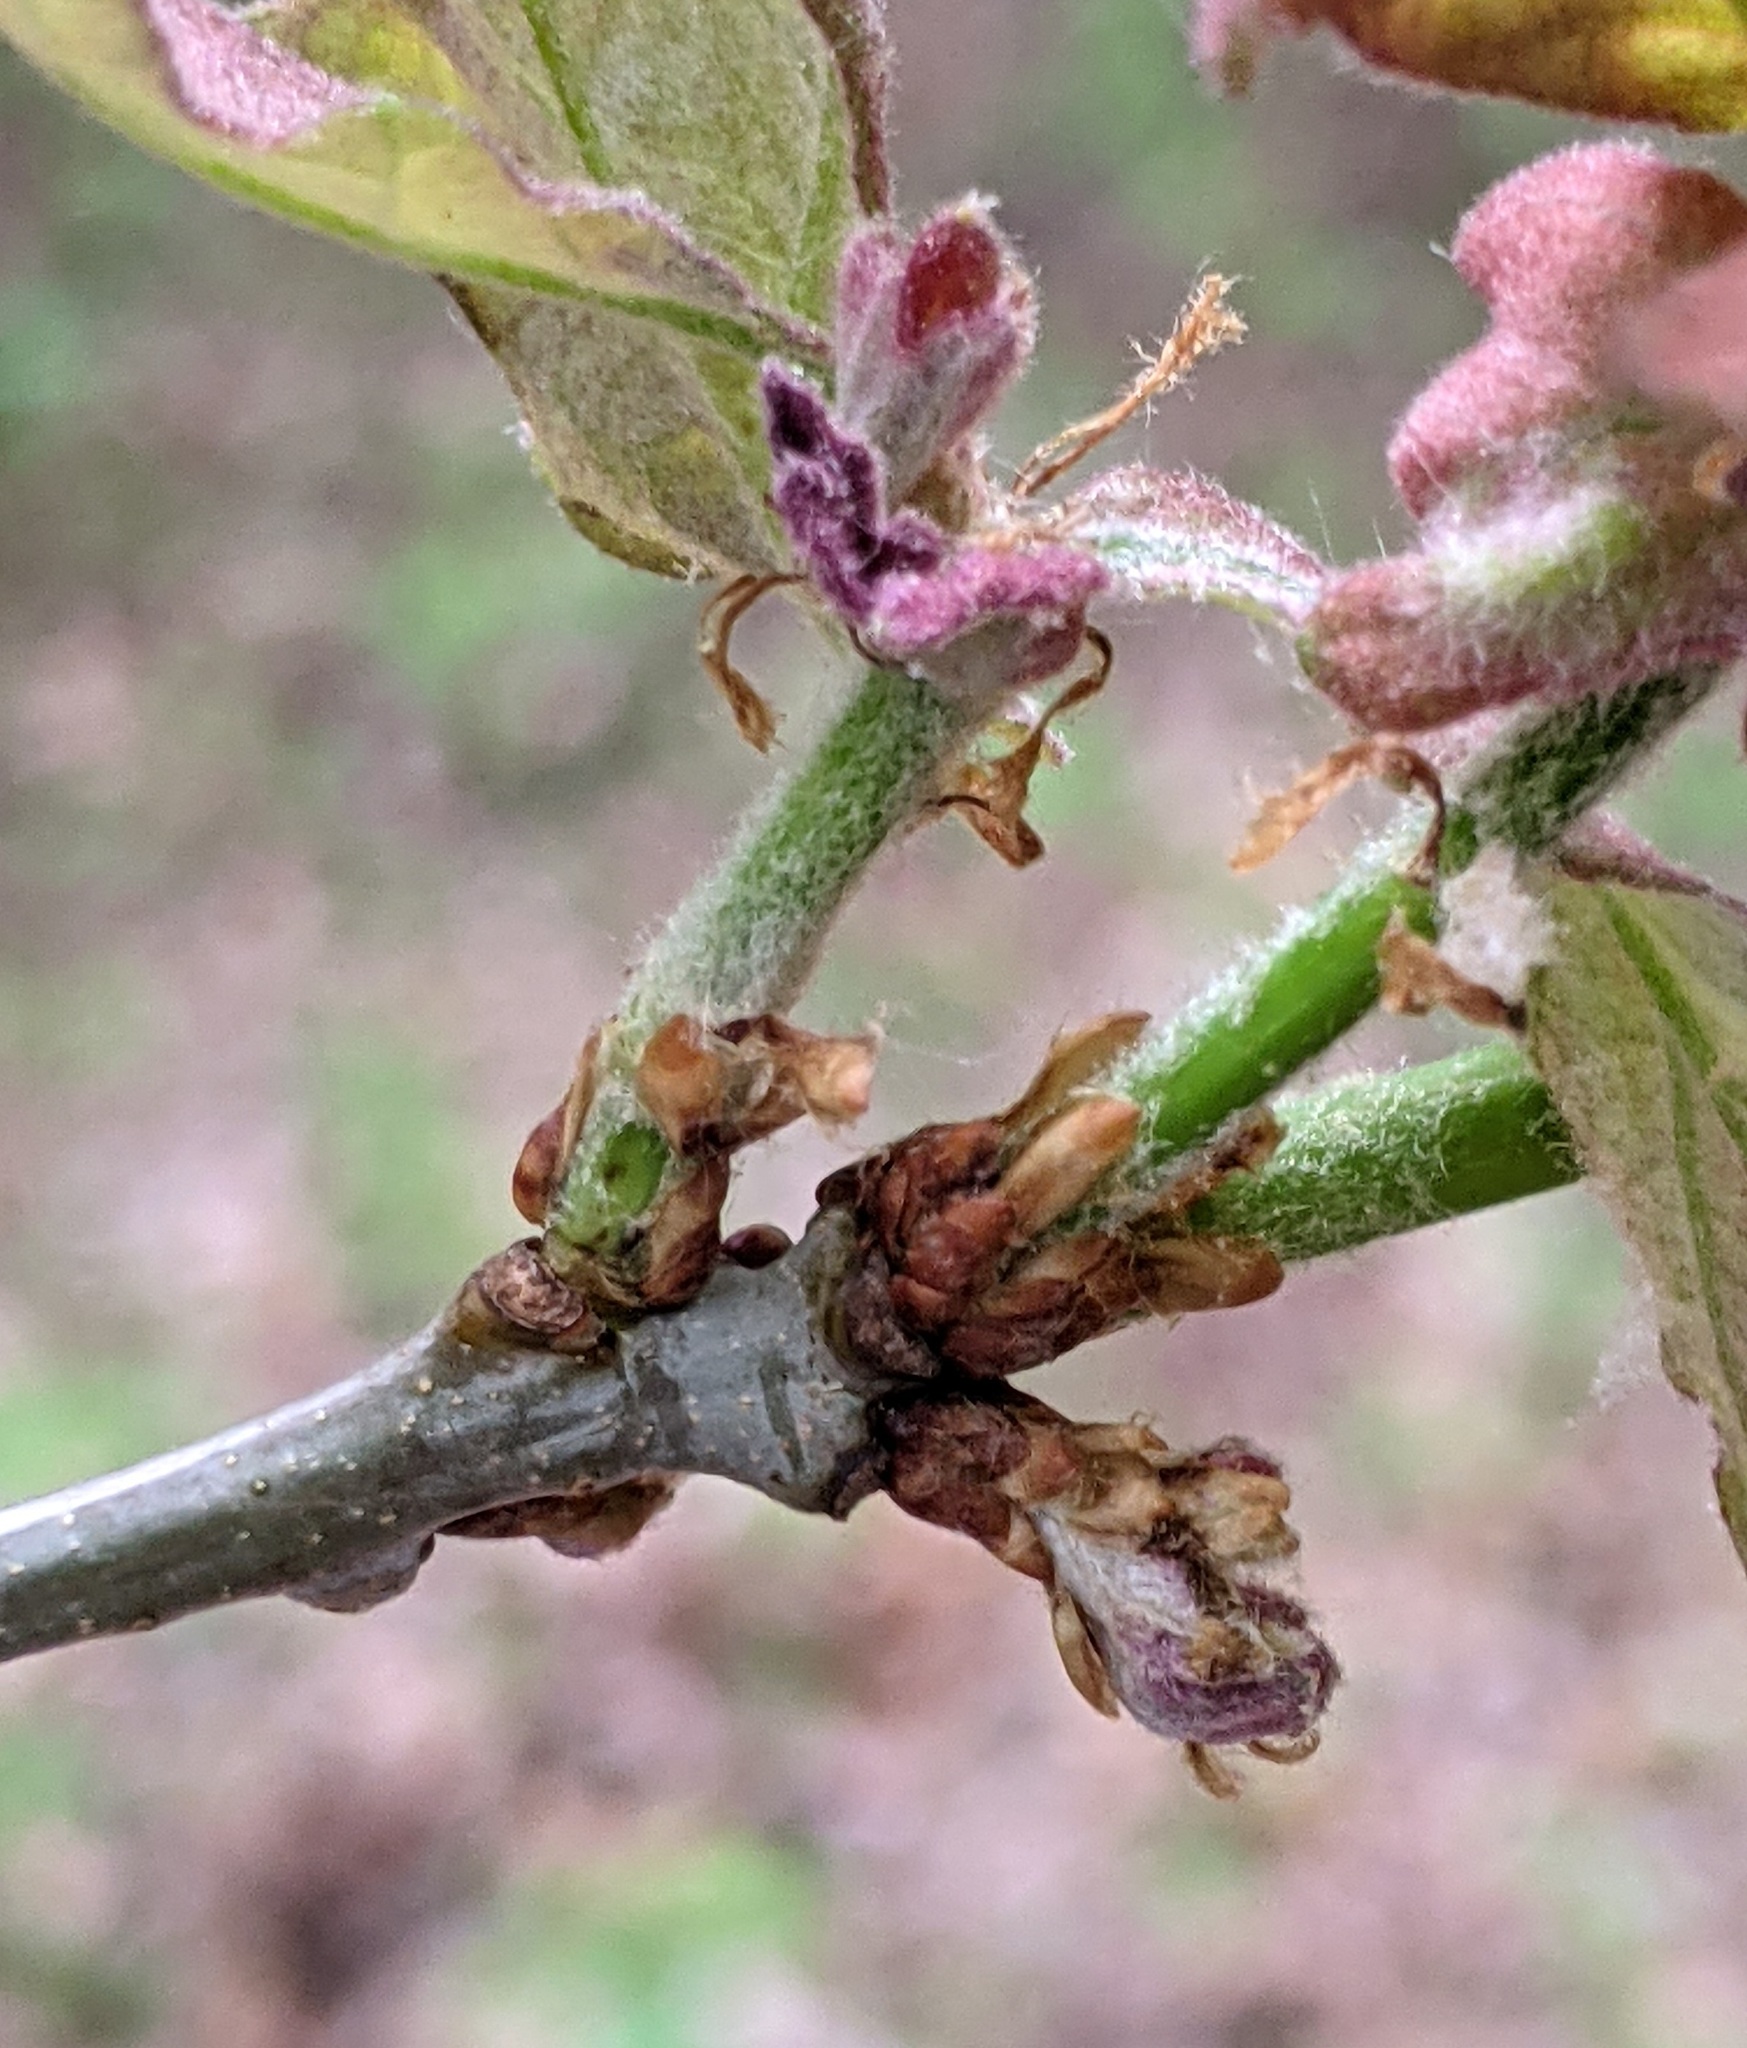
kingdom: Animalia
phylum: Arthropoda
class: Insecta
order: Hymenoptera
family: Cynipidae
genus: Neuroterus
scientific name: Neuroterus minutulus
